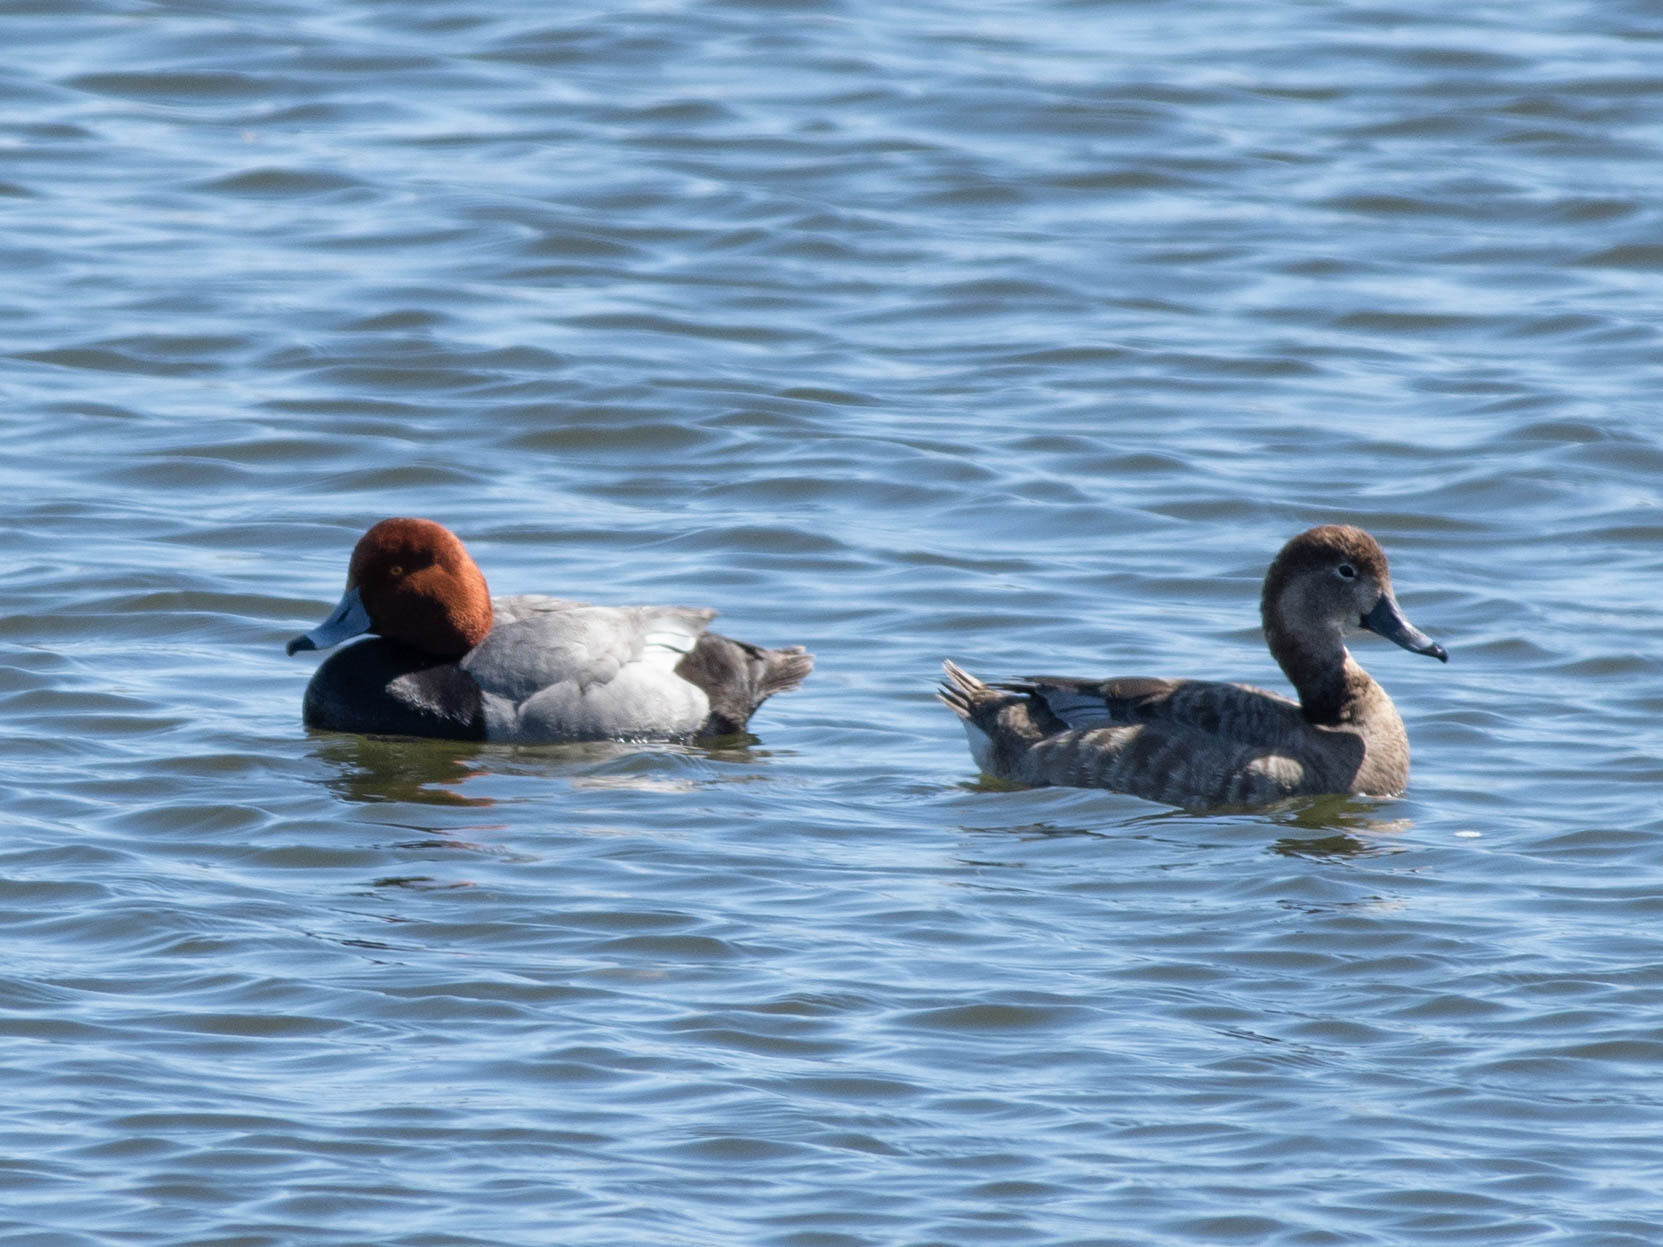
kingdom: Animalia
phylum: Chordata
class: Aves
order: Anseriformes
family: Anatidae
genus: Aythya
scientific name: Aythya americana
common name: Redhead
